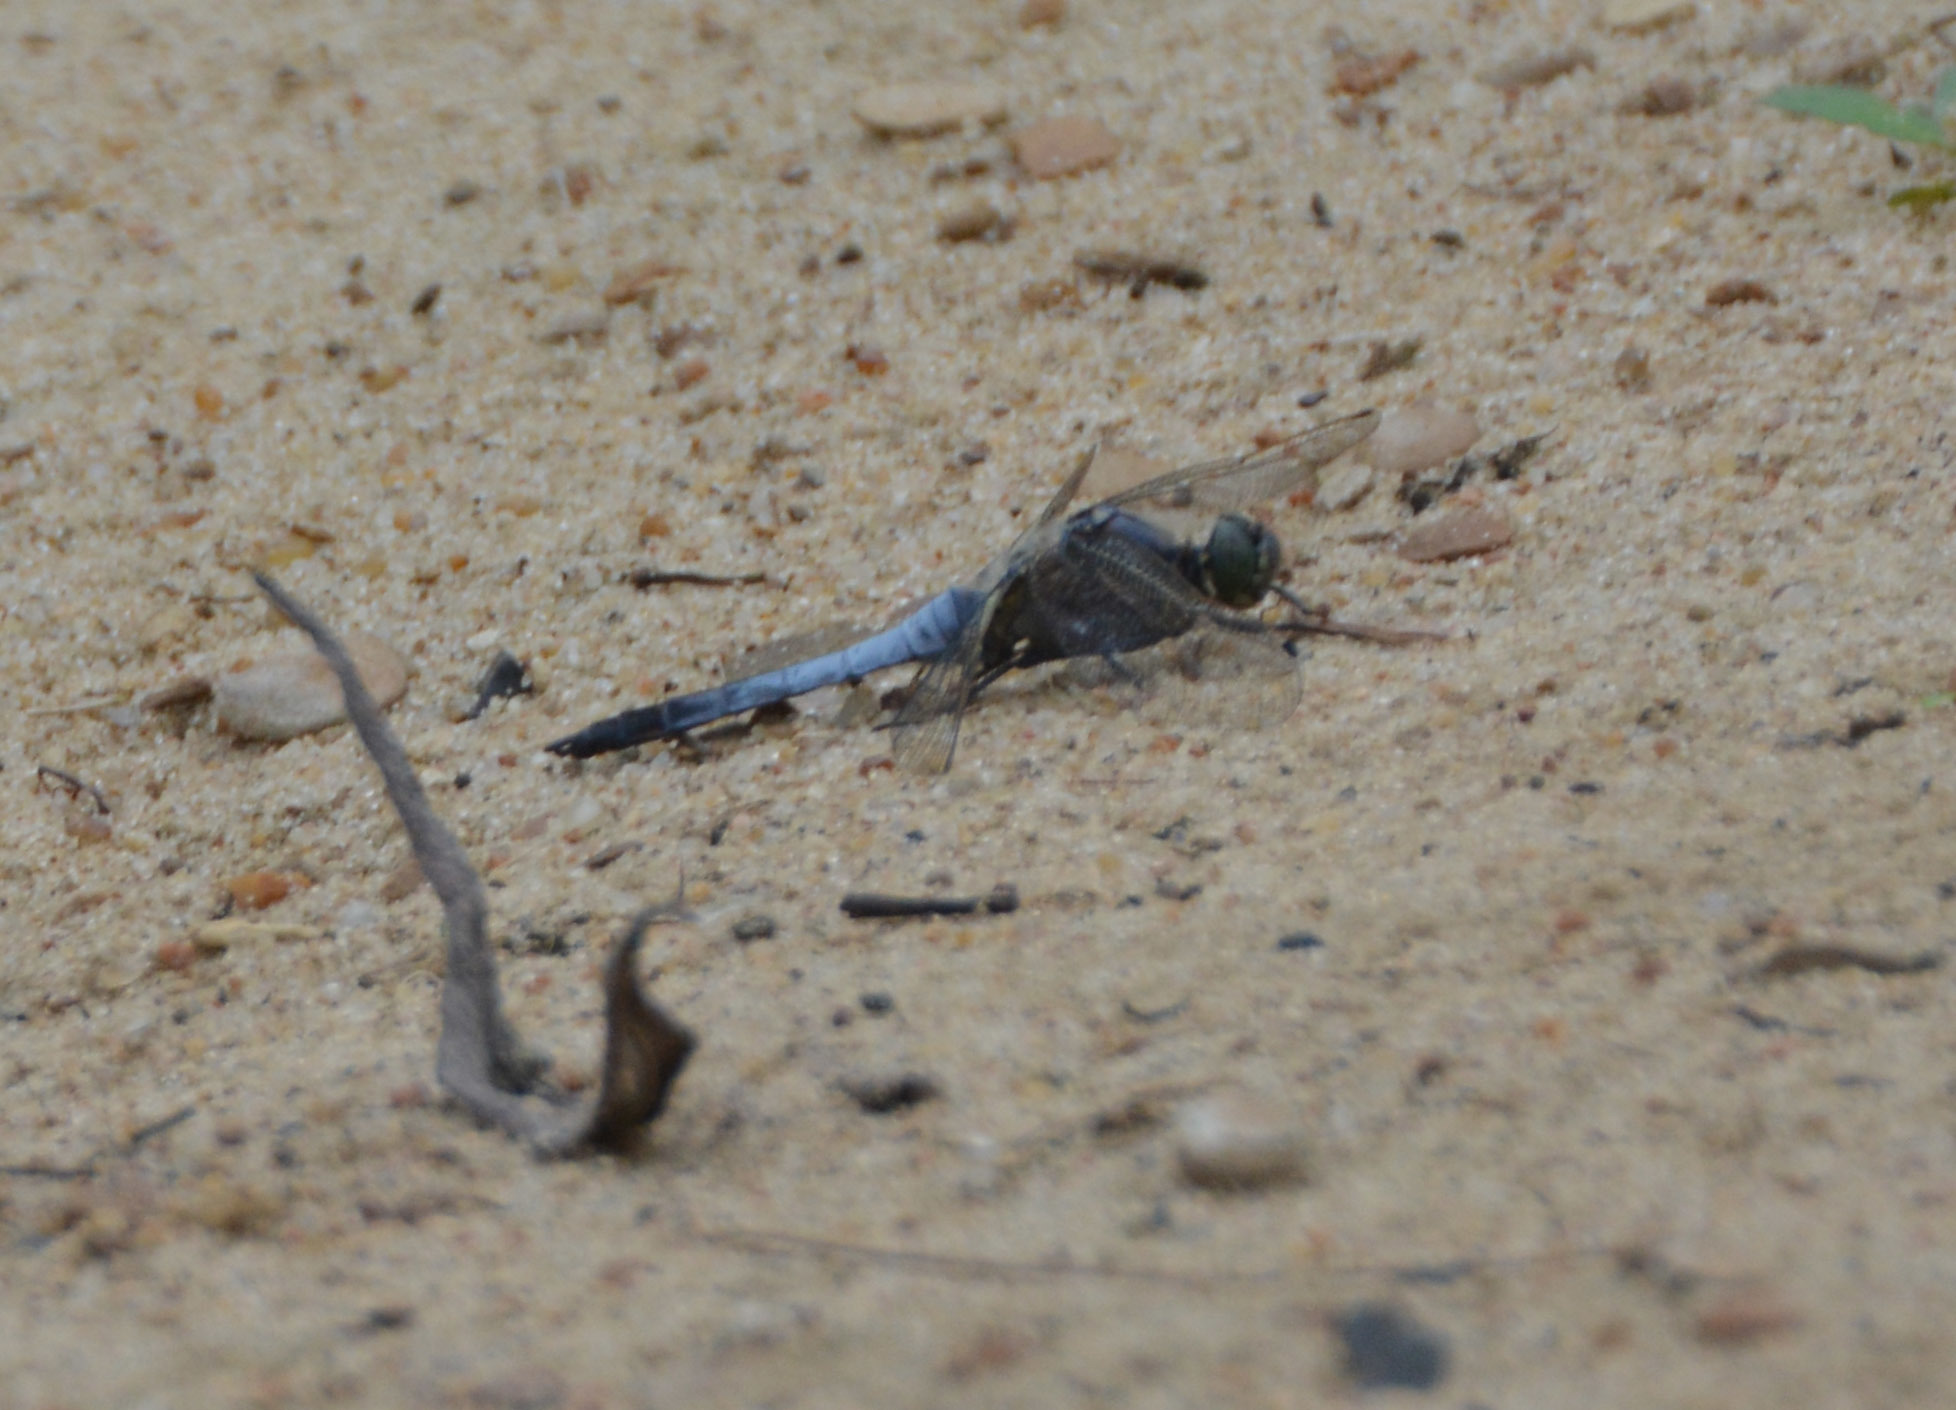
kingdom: Animalia
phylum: Arthropoda
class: Insecta
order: Odonata
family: Libellulidae
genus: Orthetrum
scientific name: Orthetrum cancellatum
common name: Black-tailed skimmer
